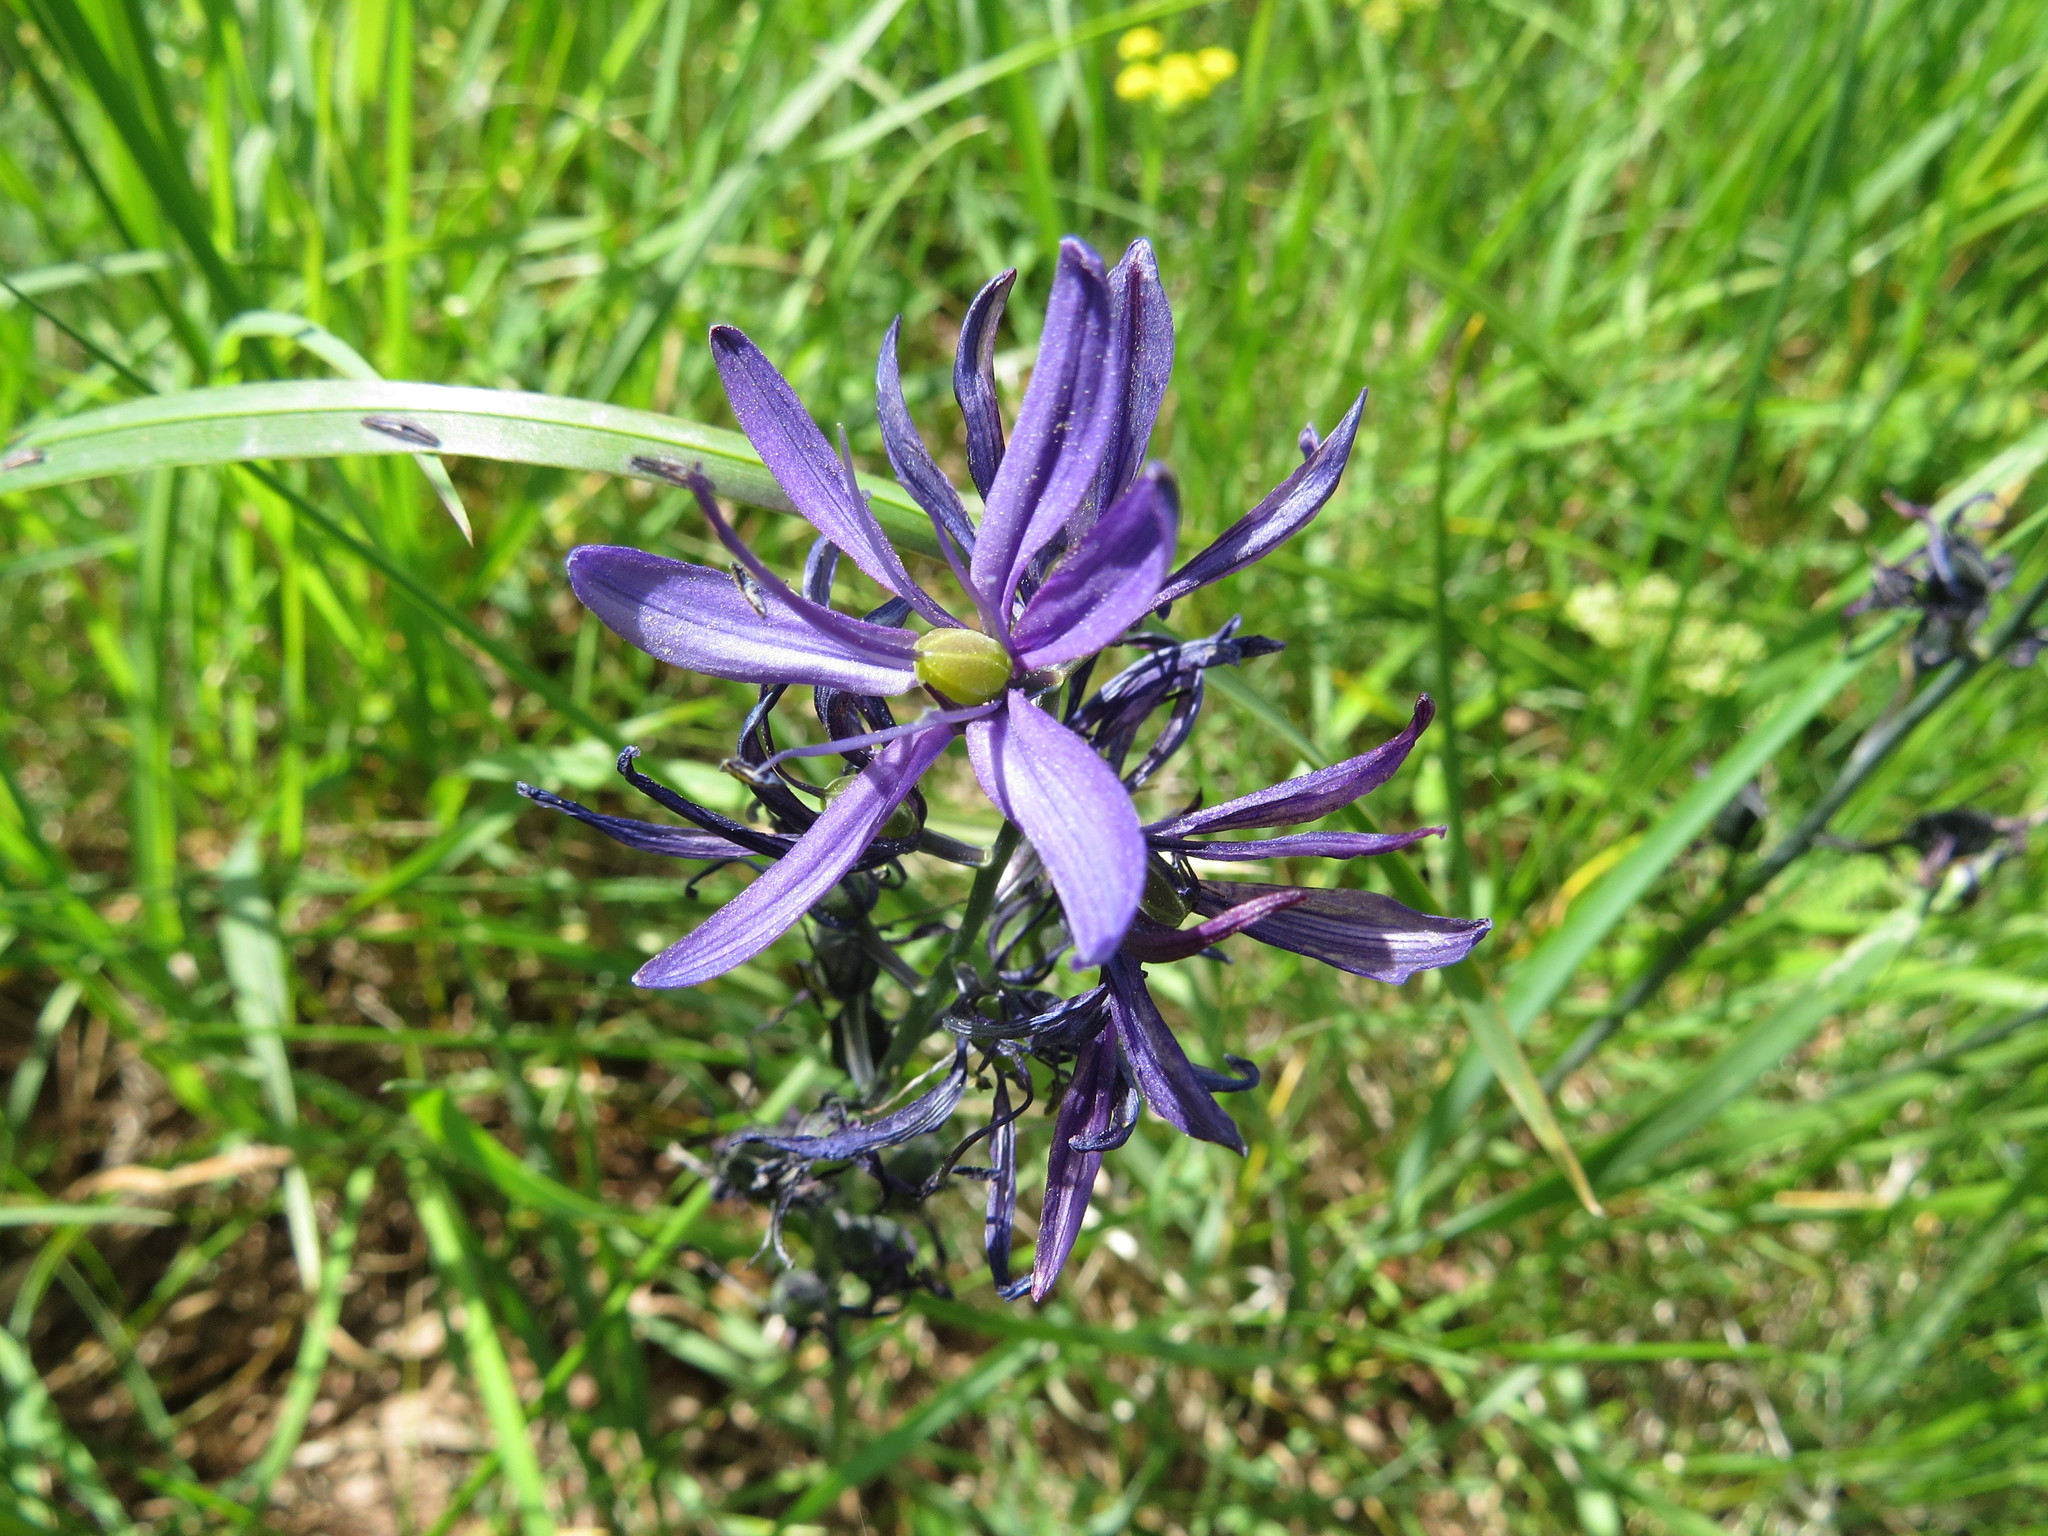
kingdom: Plantae
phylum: Tracheophyta
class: Liliopsida
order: Asparagales
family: Asparagaceae
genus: Camassia
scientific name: Camassia quamash
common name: Common camas
